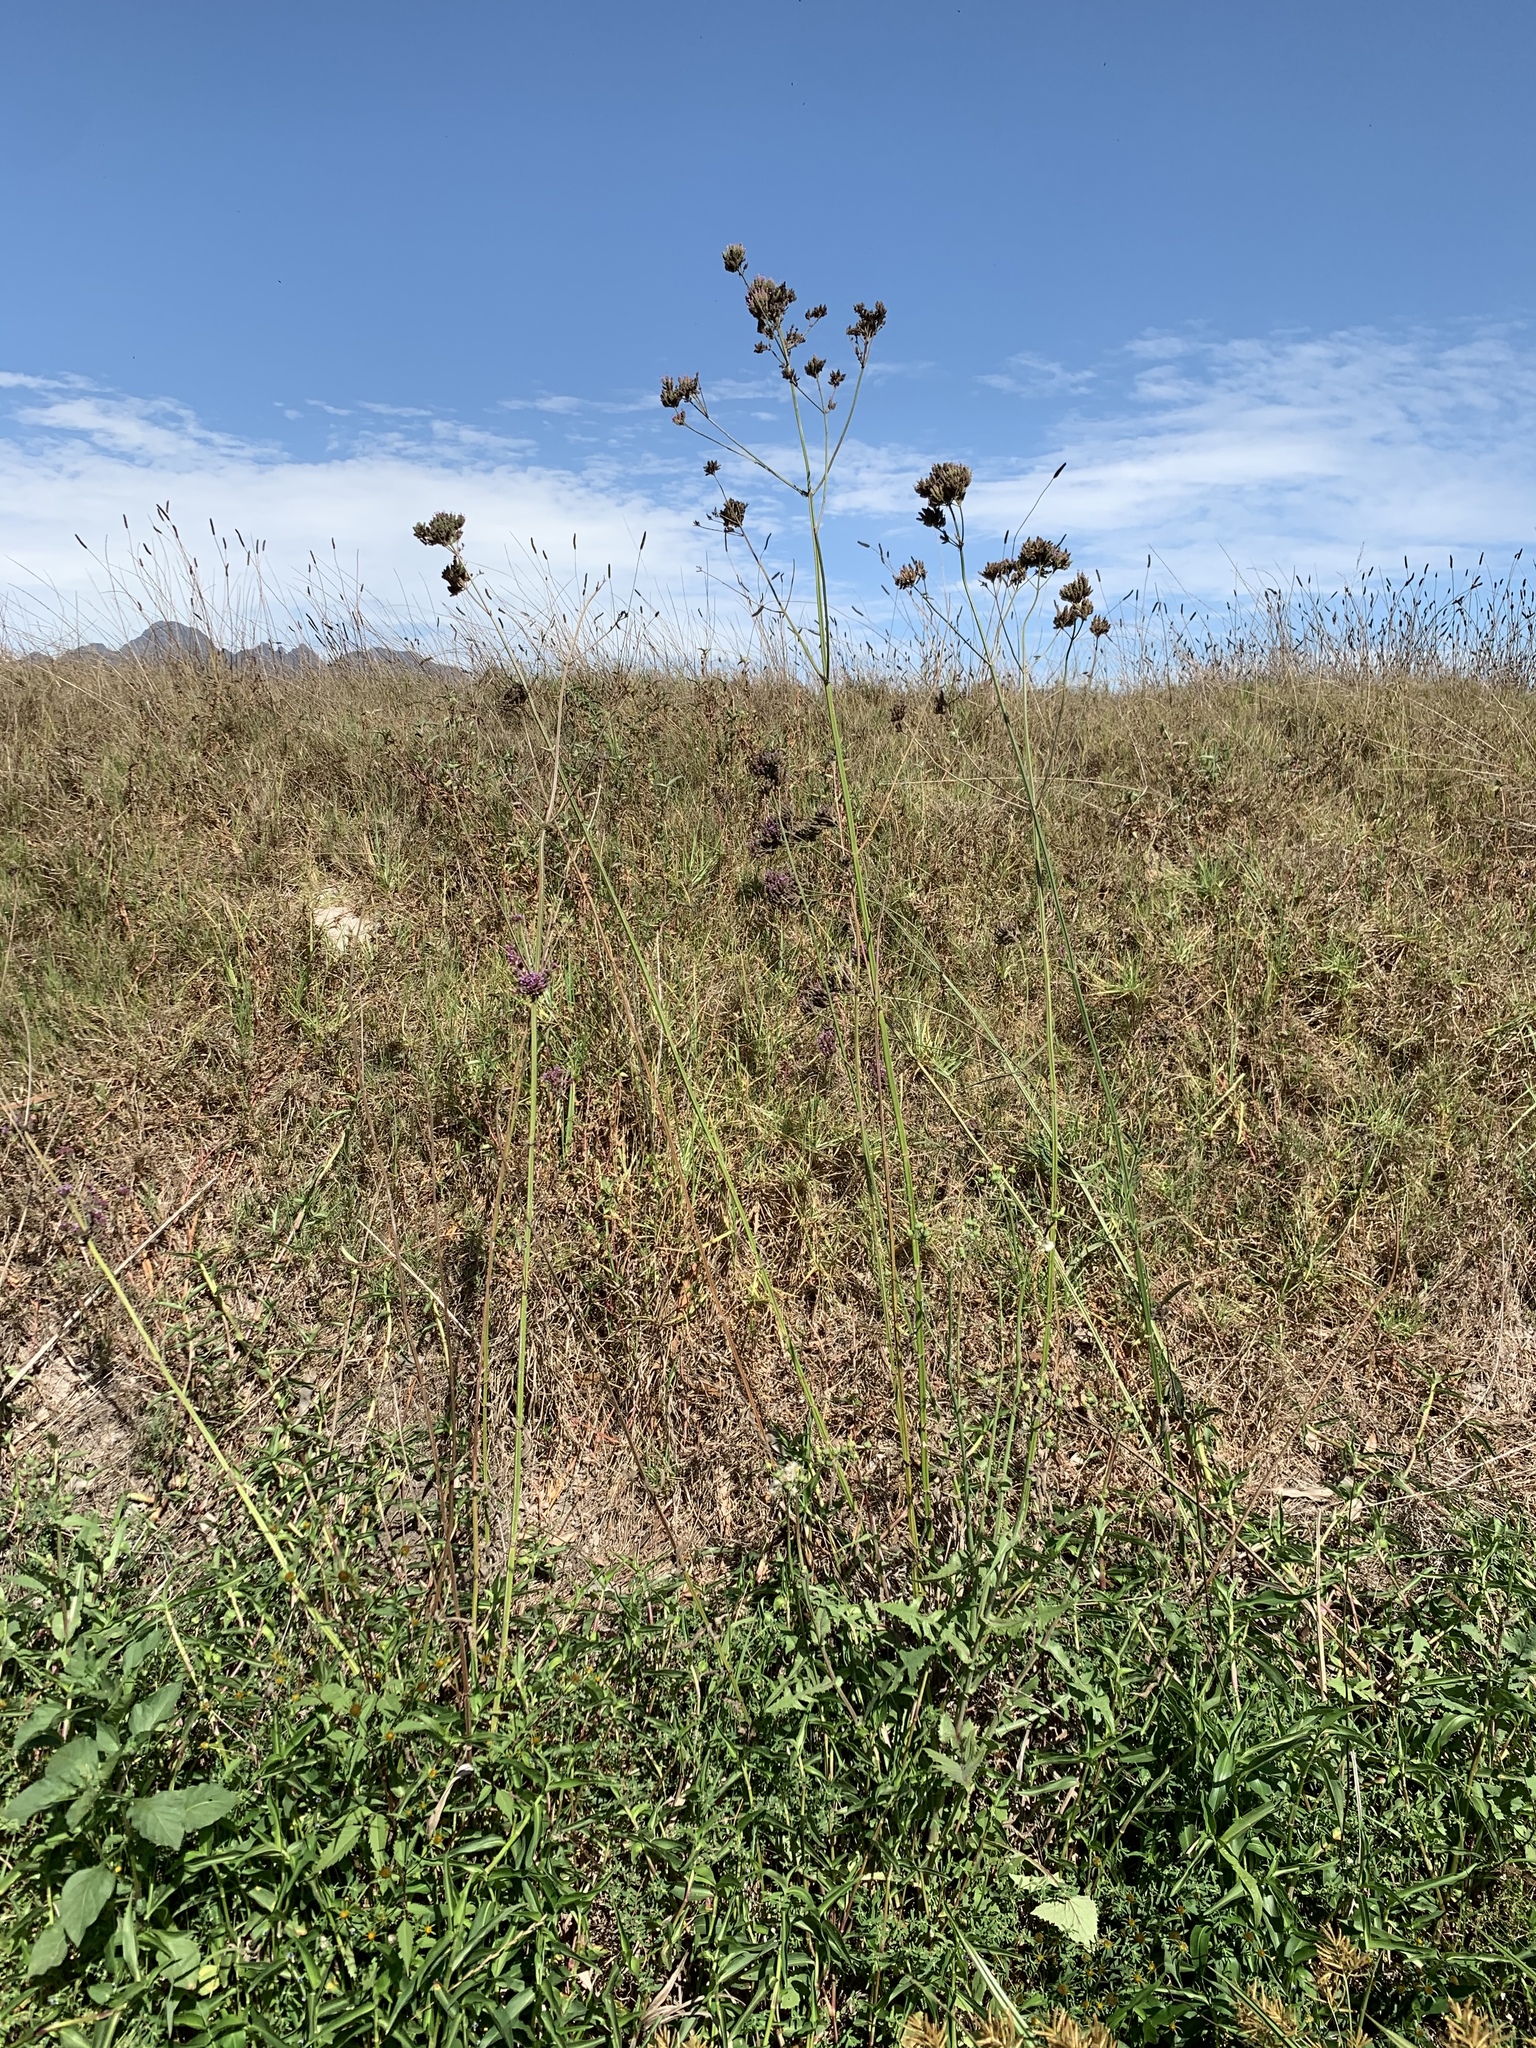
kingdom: Plantae
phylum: Tracheophyta
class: Magnoliopsida
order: Lamiales
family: Verbenaceae
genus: Verbena
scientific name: Verbena bonariensis
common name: Purpletop vervain
